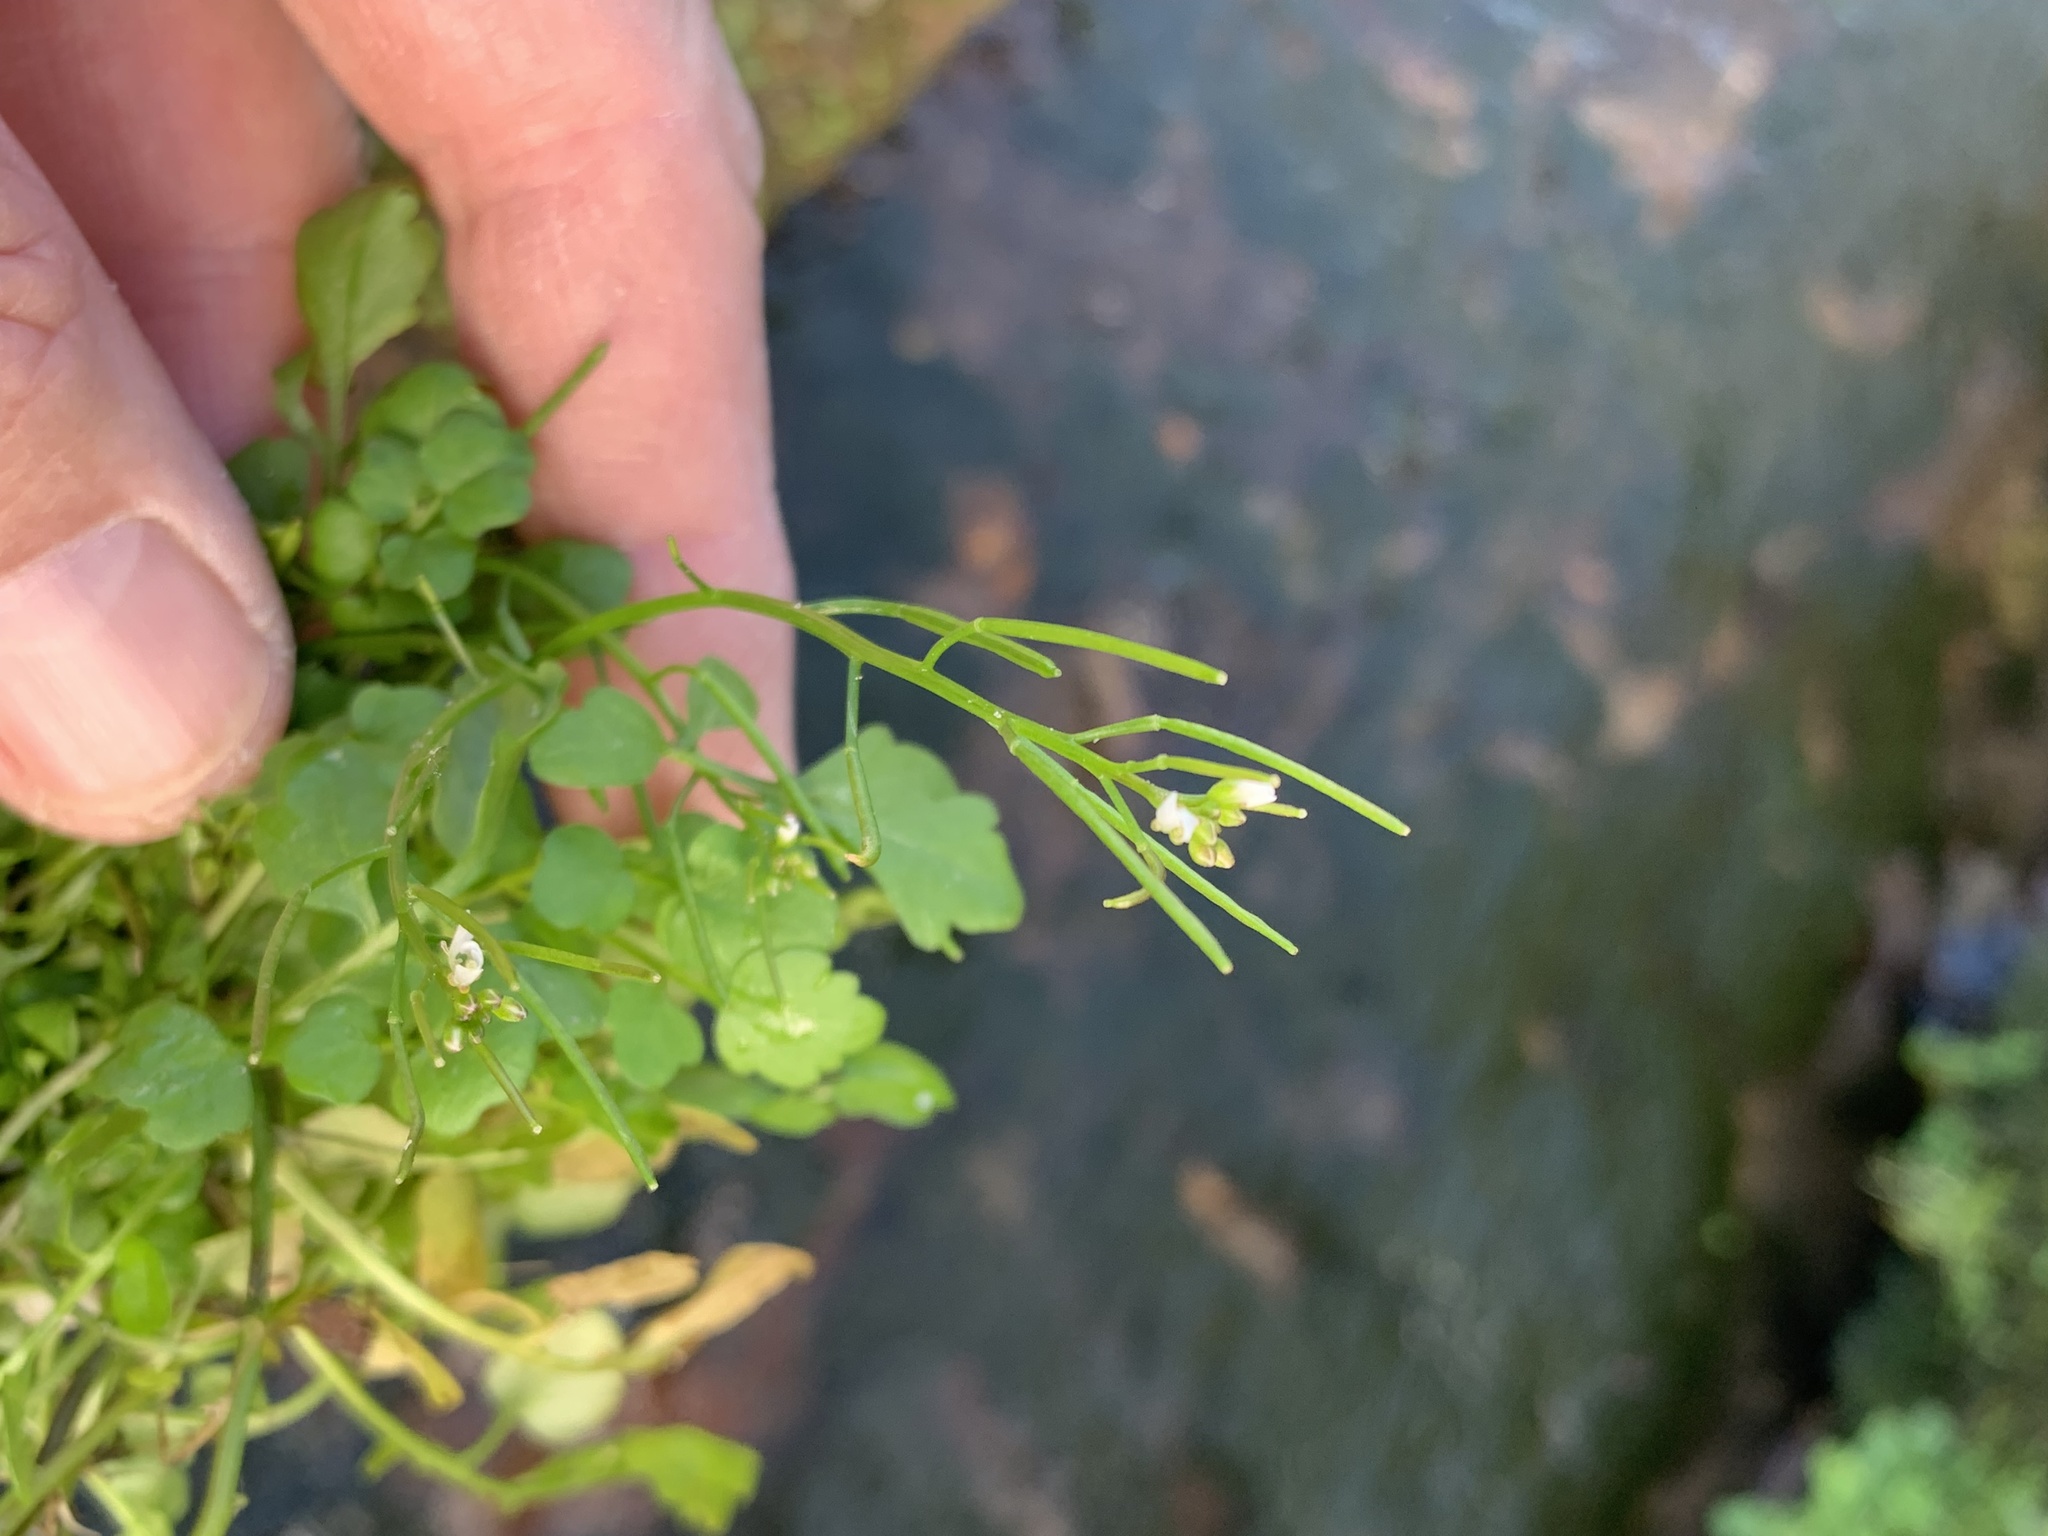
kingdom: Plantae
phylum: Tracheophyta
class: Magnoliopsida
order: Brassicales
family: Brassicaceae
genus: Cardamine
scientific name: Cardamine occulta
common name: Asian wavy bittercress
